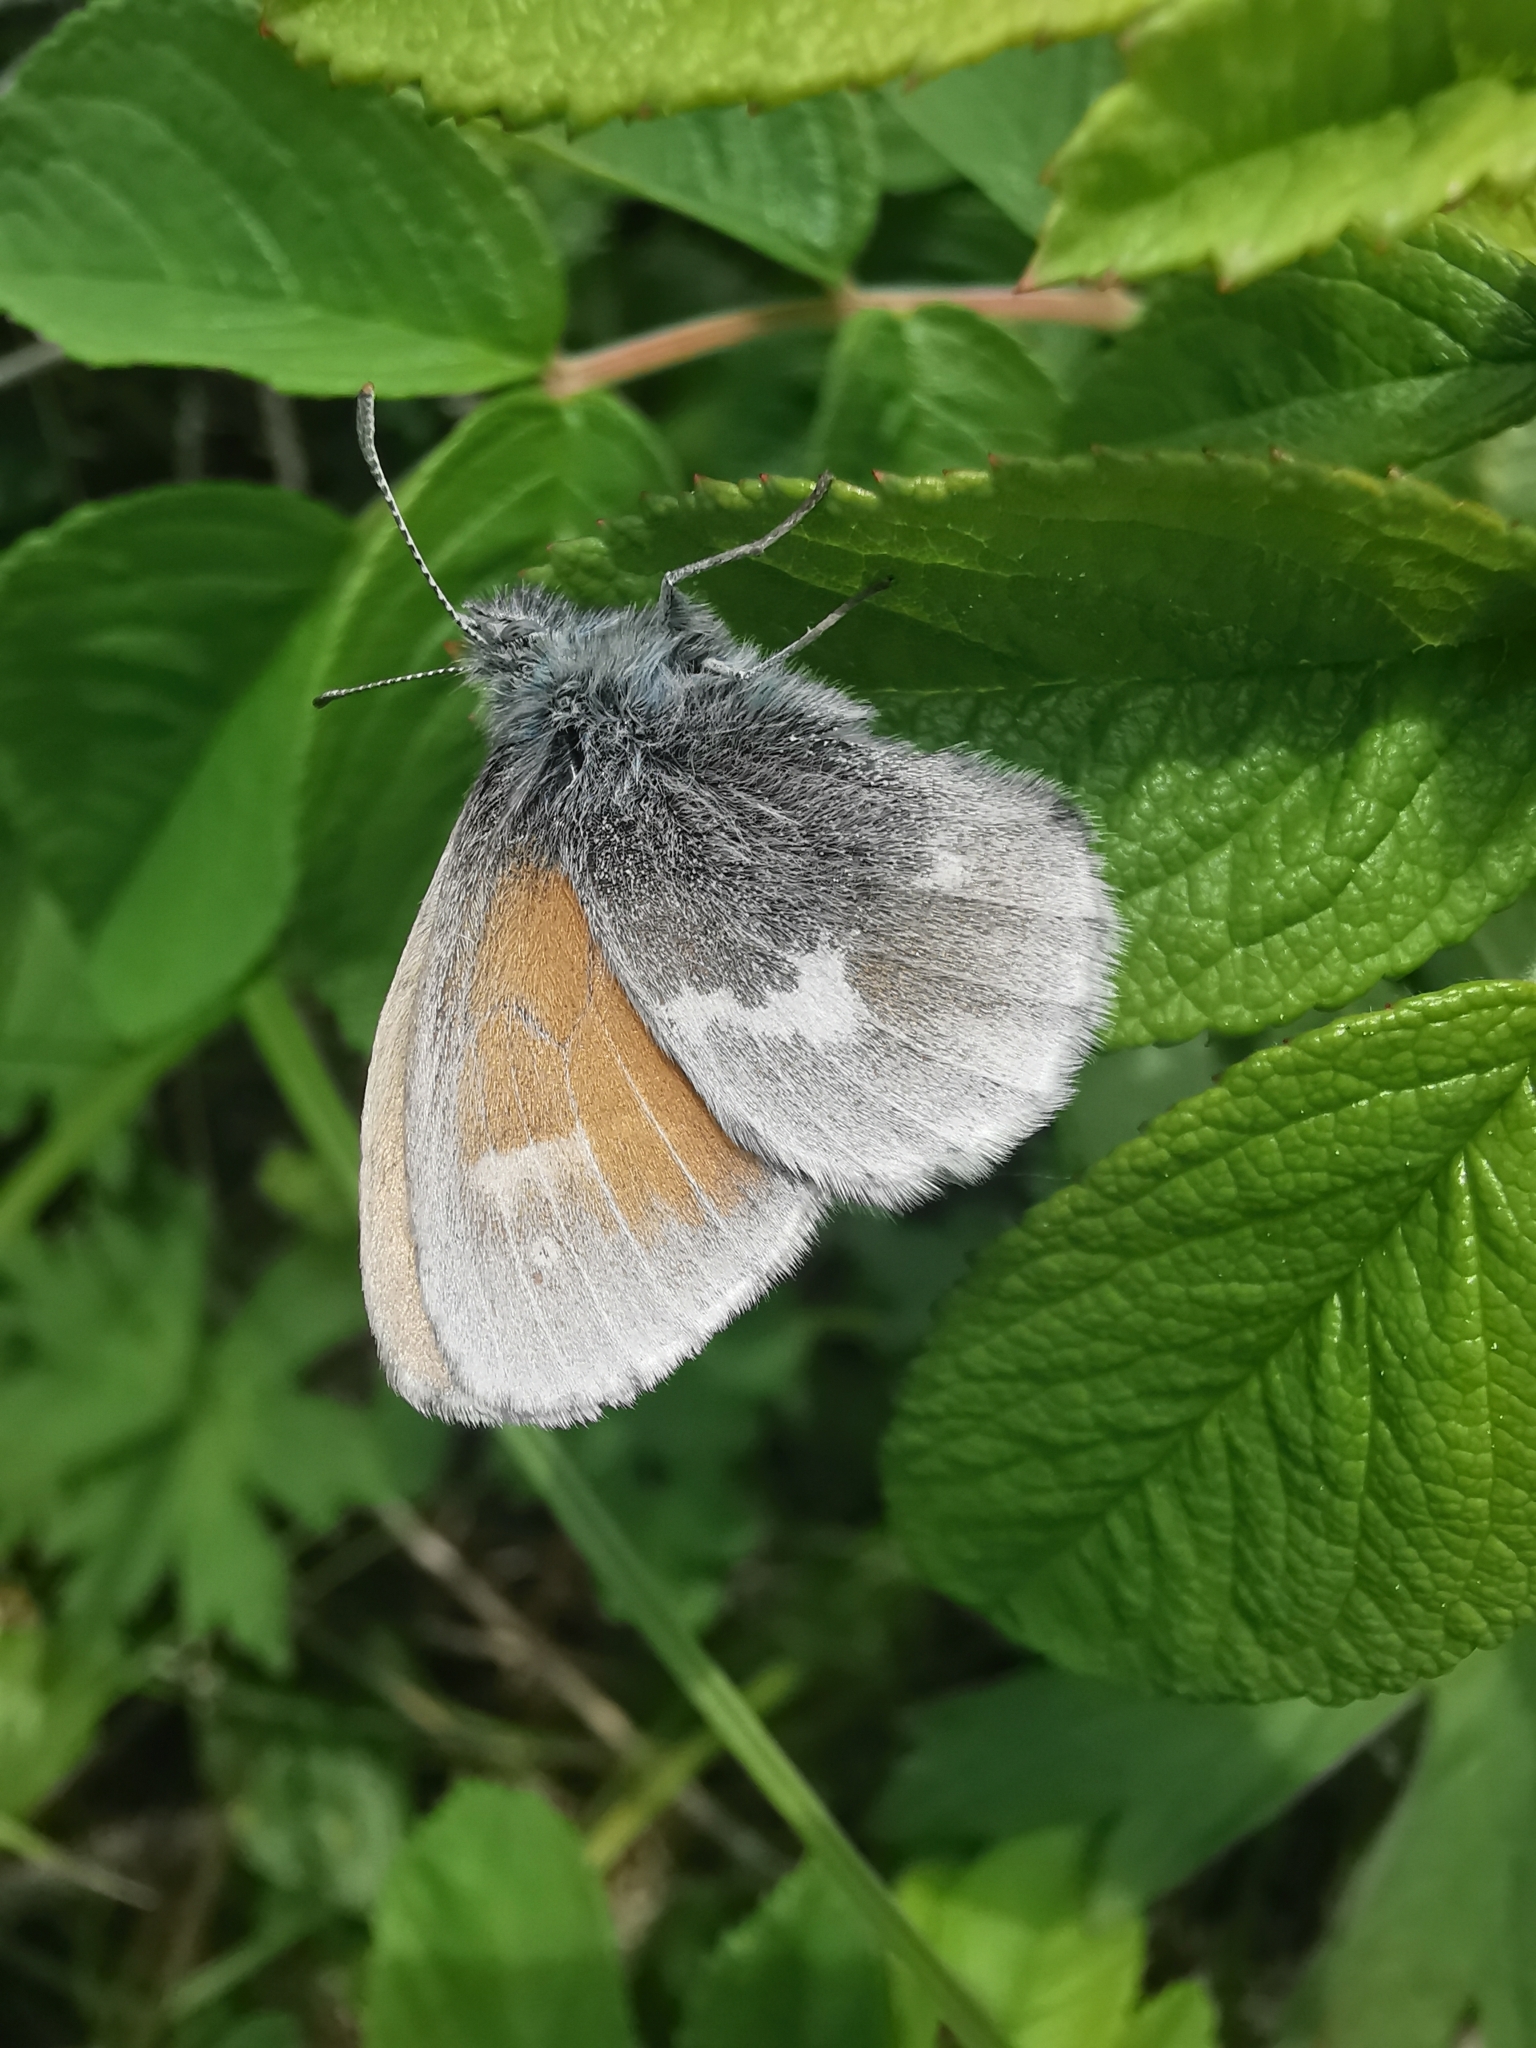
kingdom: Animalia
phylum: Arthropoda
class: Insecta
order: Lepidoptera
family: Nymphalidae
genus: Coenonympha
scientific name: Coenonympha tullia
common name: Large heath
